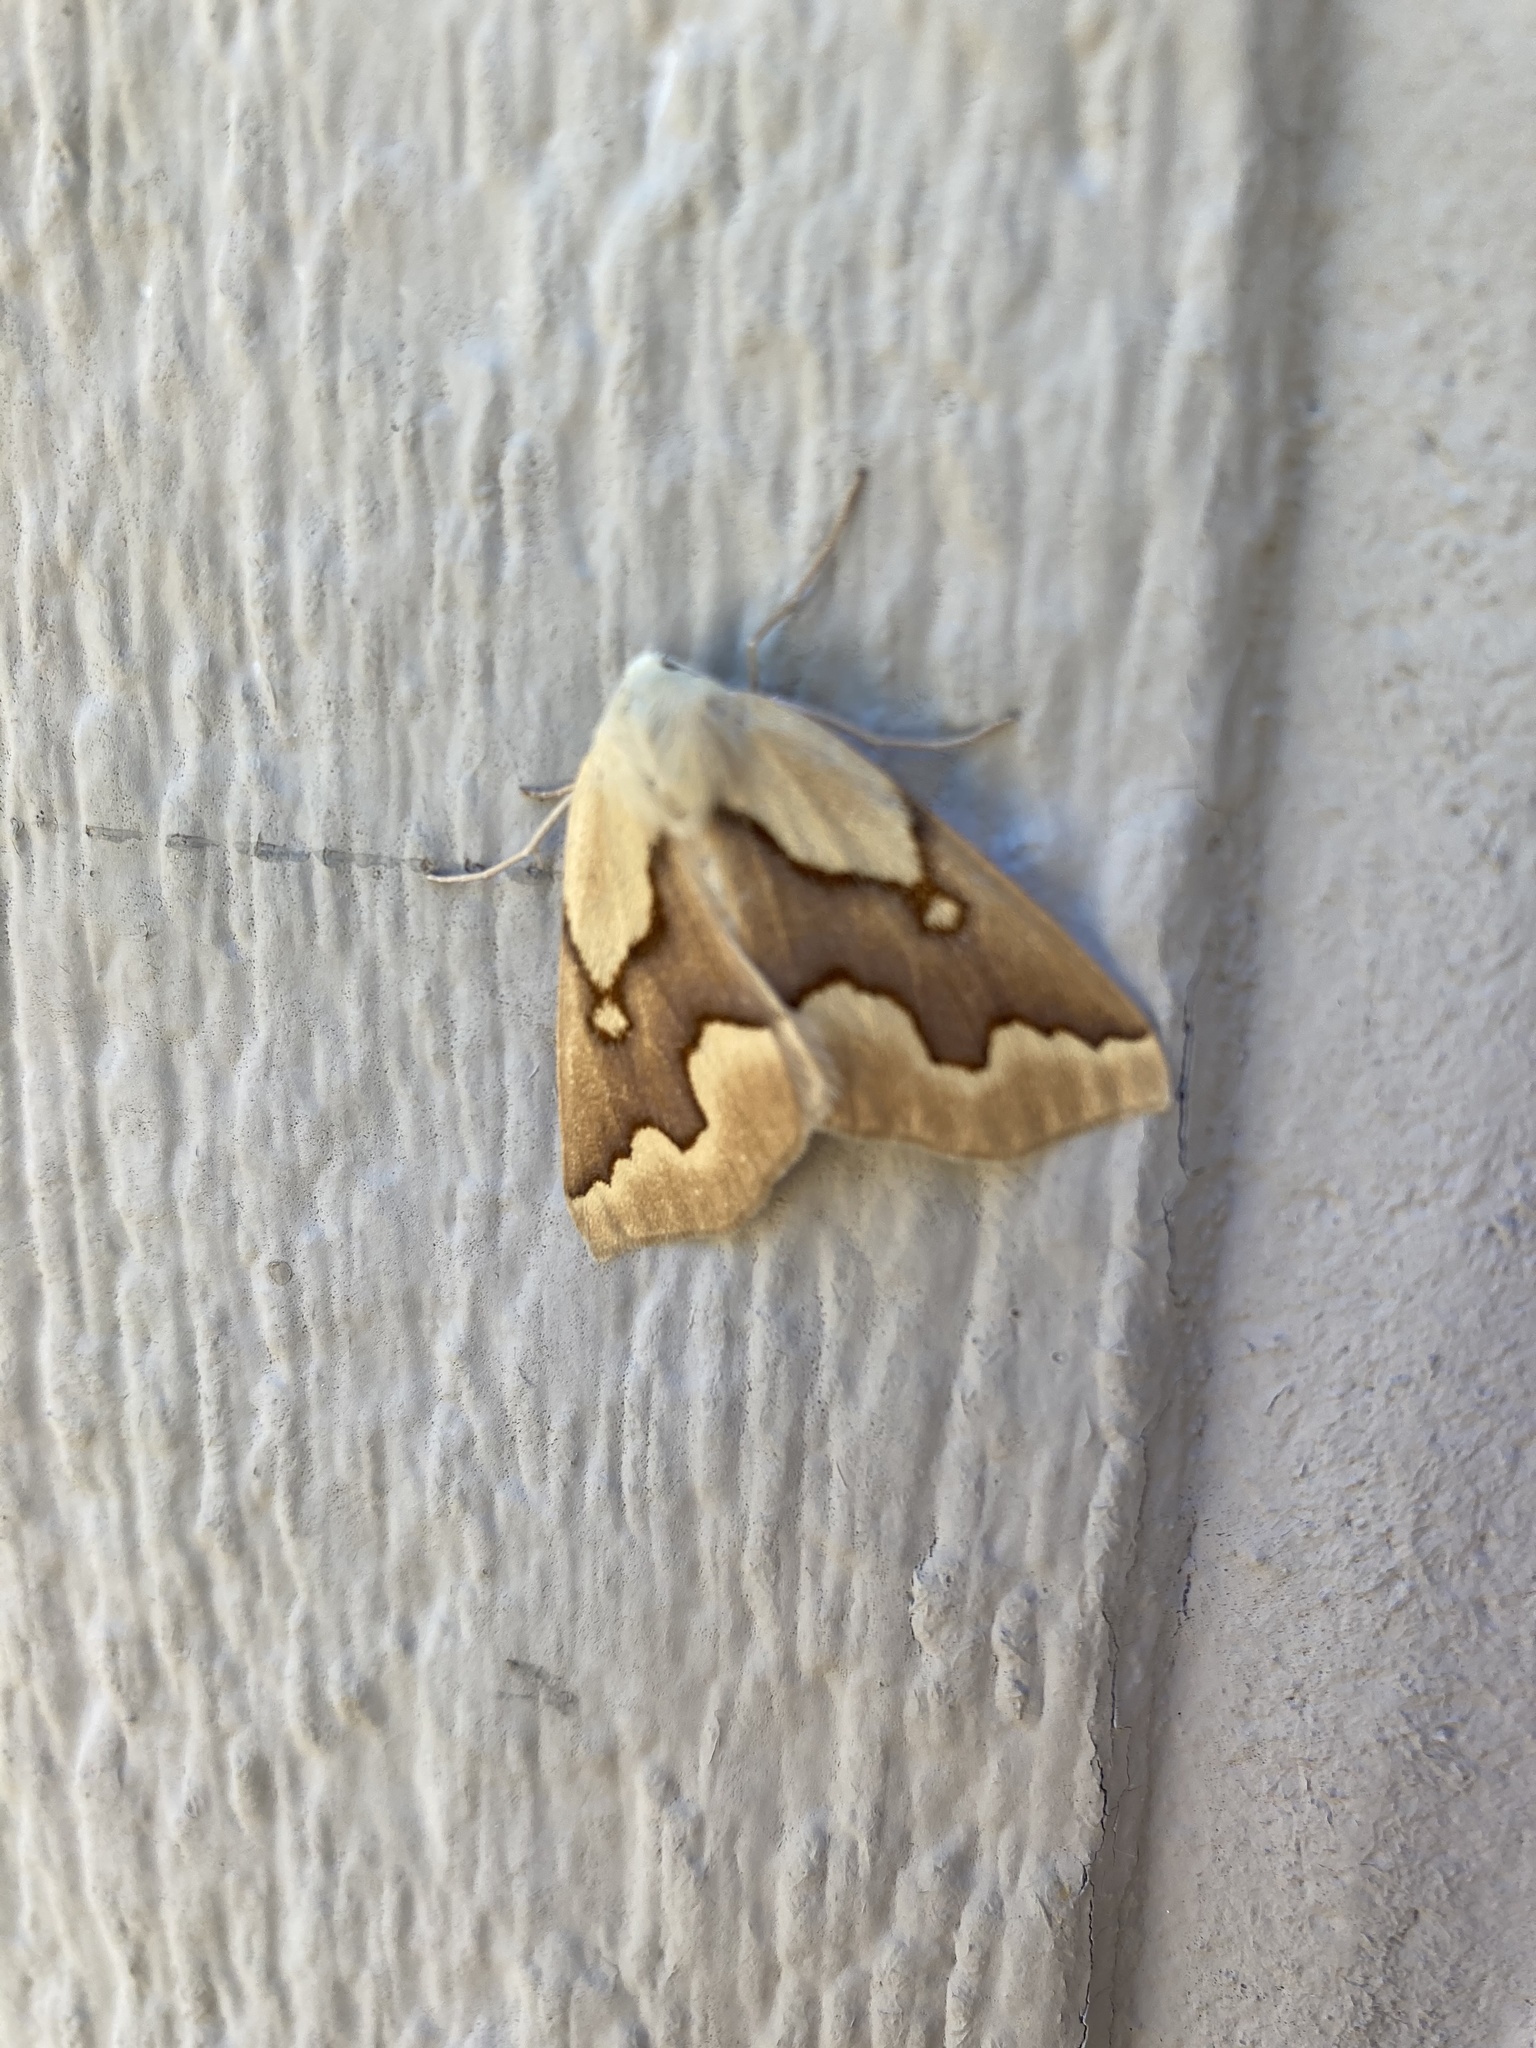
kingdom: Animalia
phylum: Arthropoda
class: Insecta
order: Lepidoptera
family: Geometridae
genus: Sabulodes
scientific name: Sabulodes edwardsata
